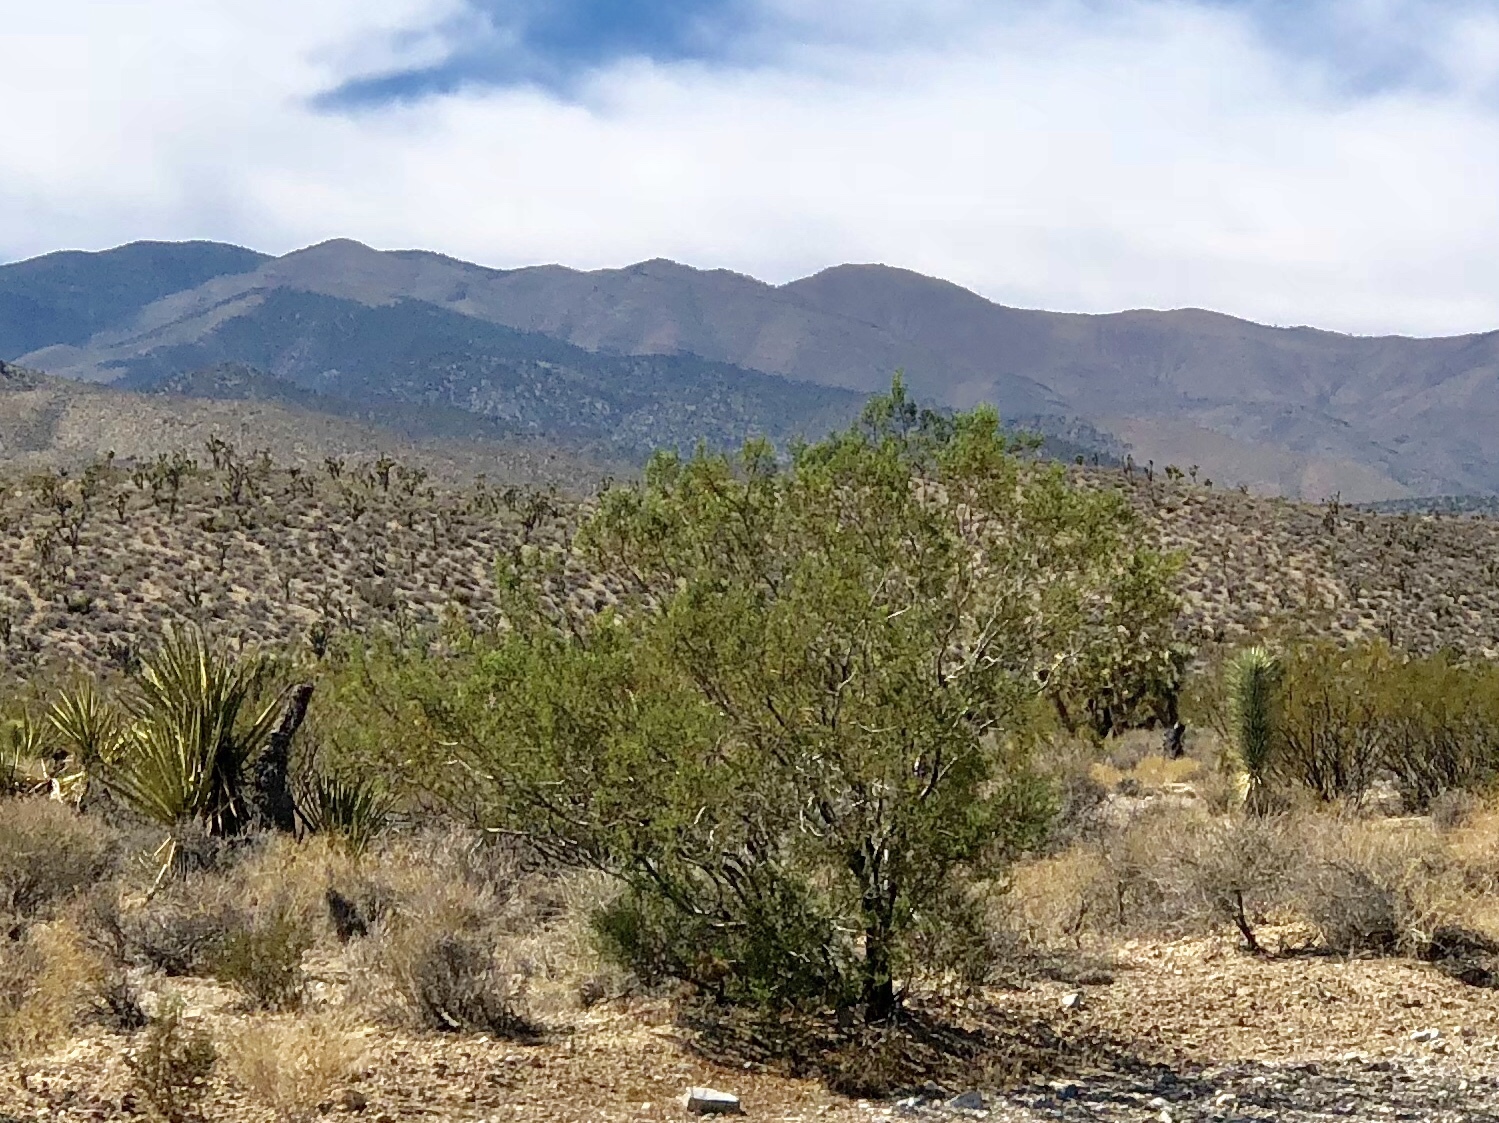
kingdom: Plantae
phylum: Tracheophyta
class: Magnoliopsida
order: Zygophyllales
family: Zygophyllaceae
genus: Larrea
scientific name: Larrea tridentata
